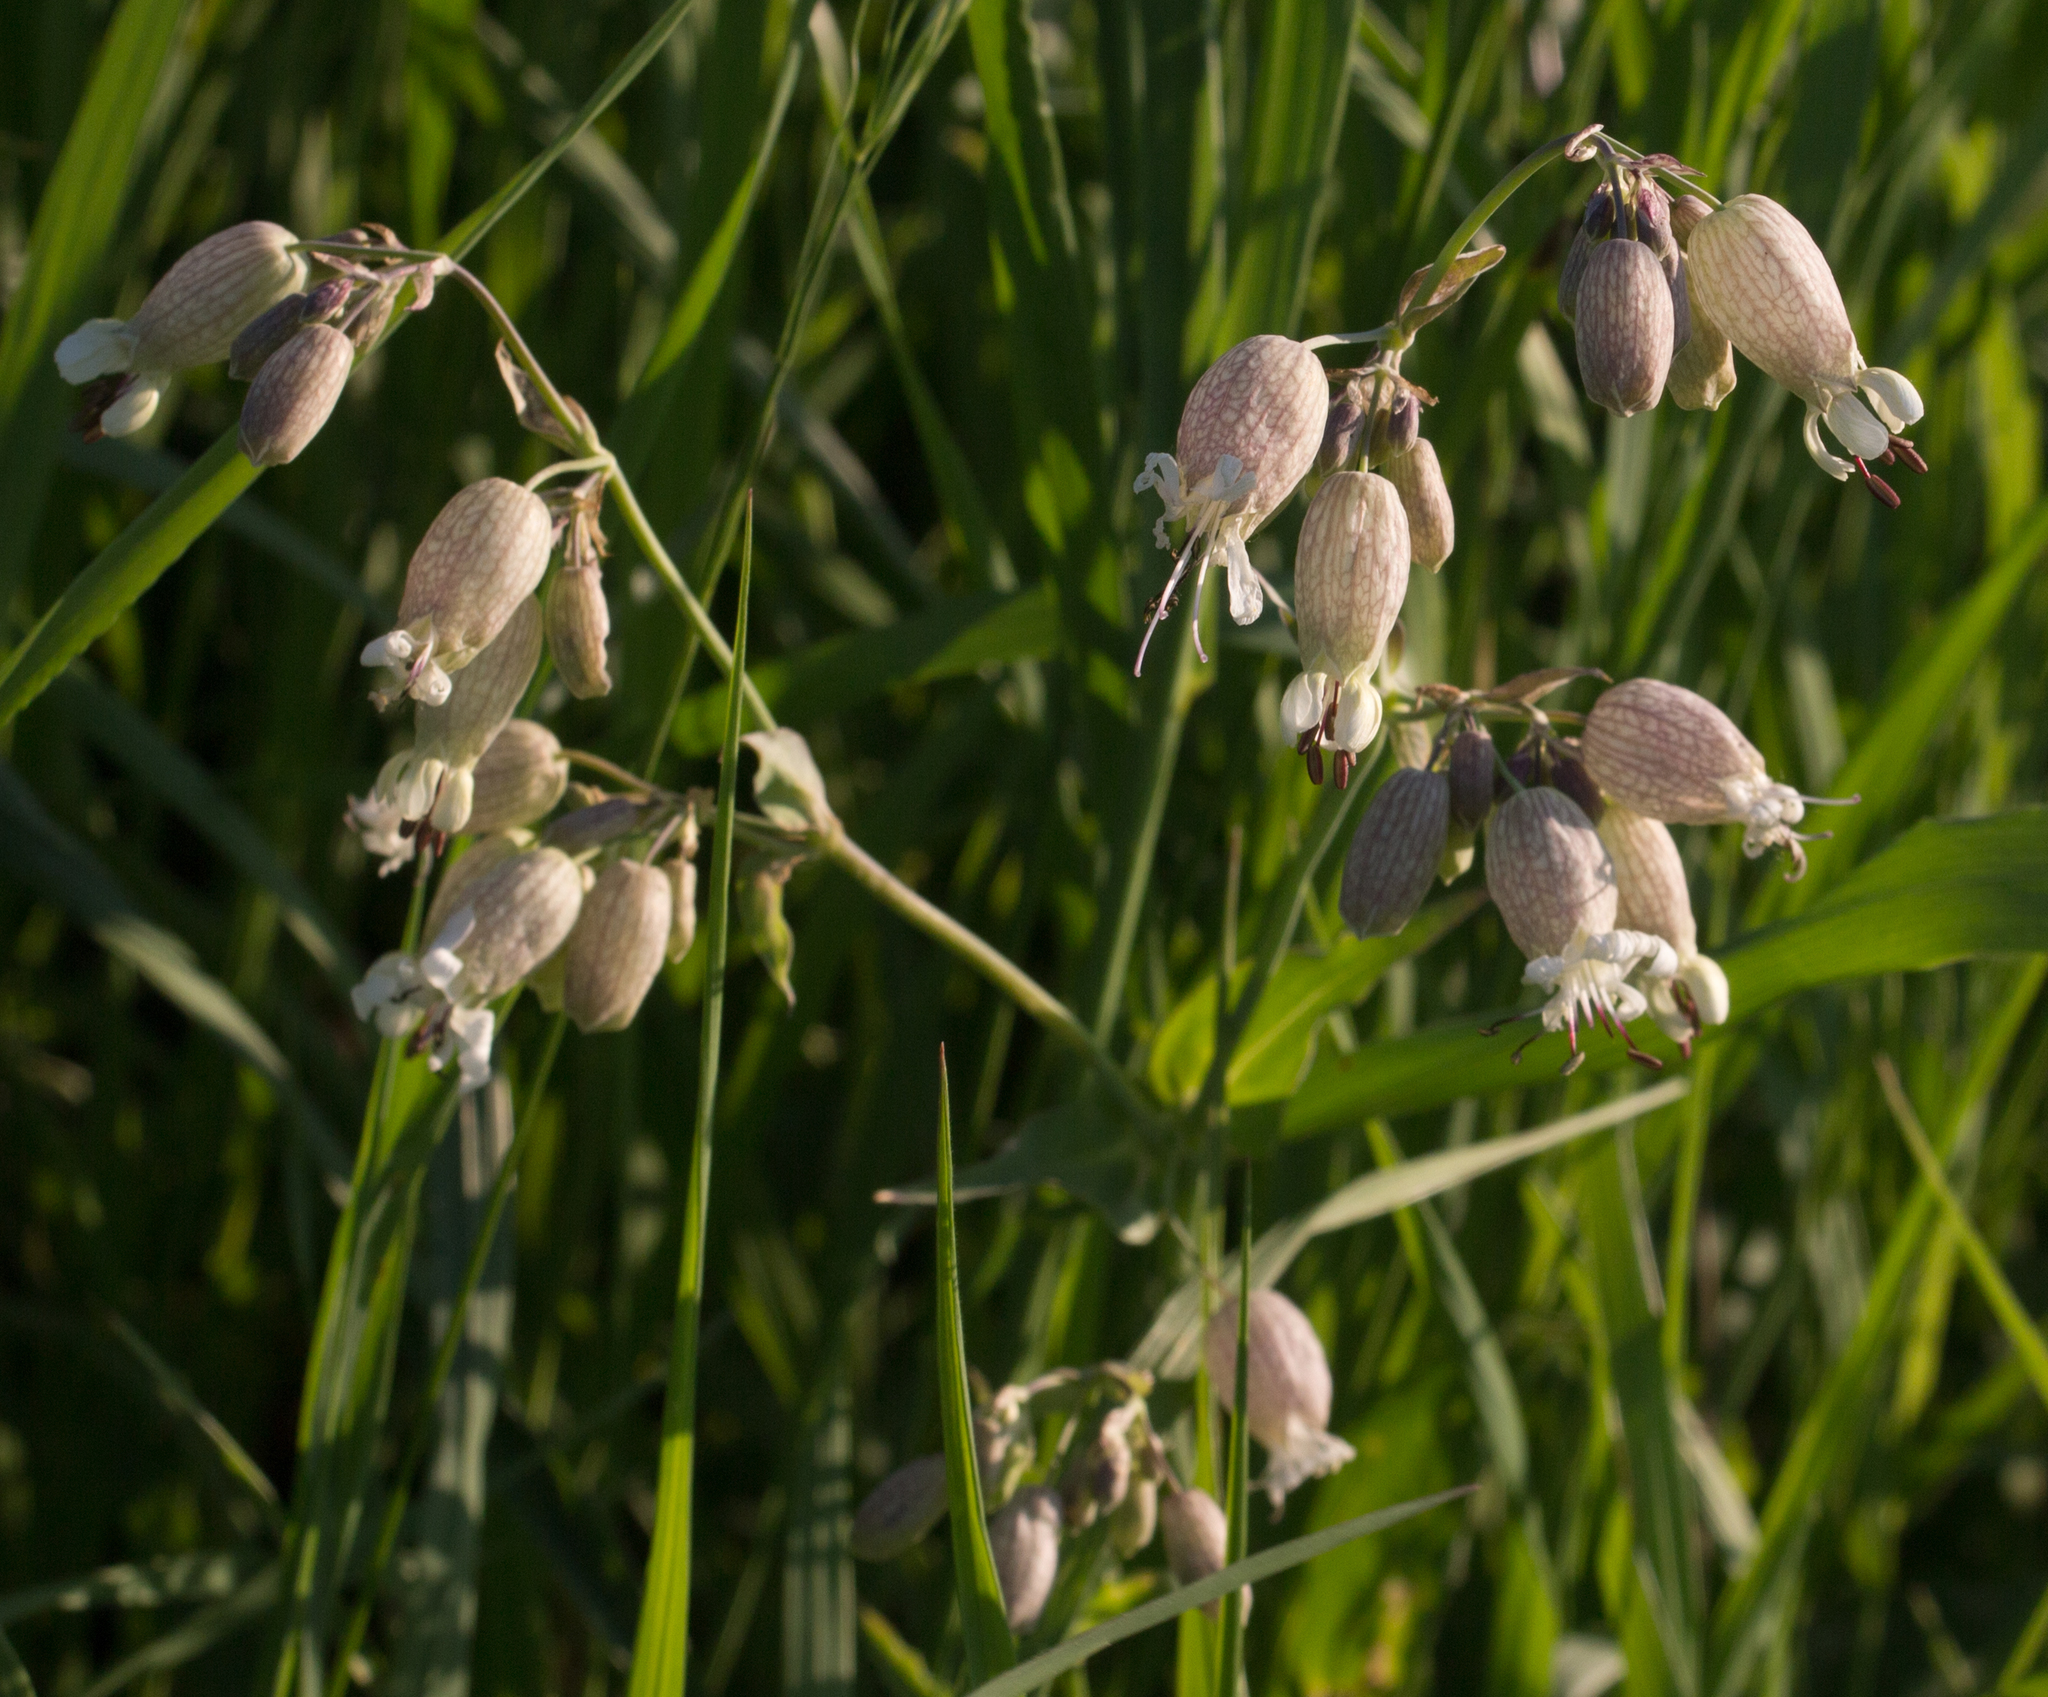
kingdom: Plantae
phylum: Tracheophyta
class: Magnoliopsida
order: Caryophyllales
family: Caryophyllaceae
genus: Silene
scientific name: Silene vulgaris
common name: Bladder campion
